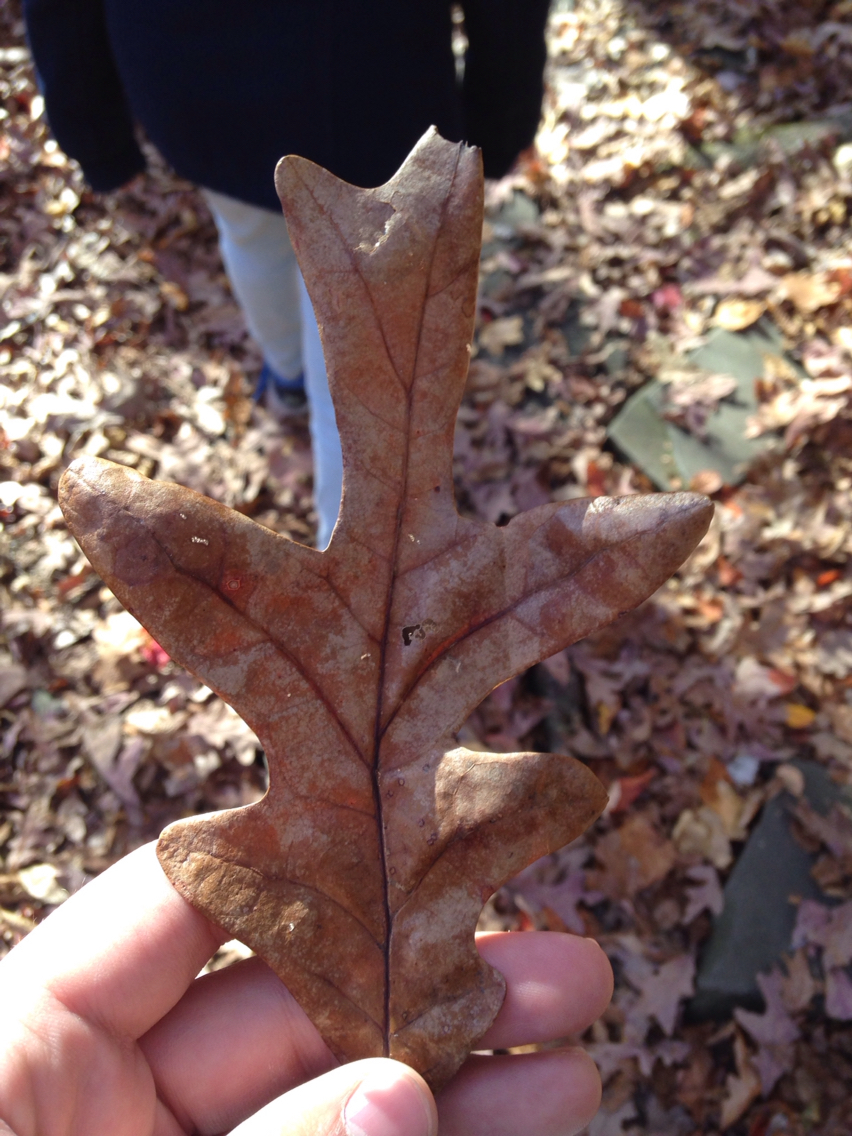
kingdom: Plantae
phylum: Tracheophyta
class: Magnoliopsida
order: Fagales
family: Fagaceae
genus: Quercus
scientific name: Quercus alba
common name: White oak
